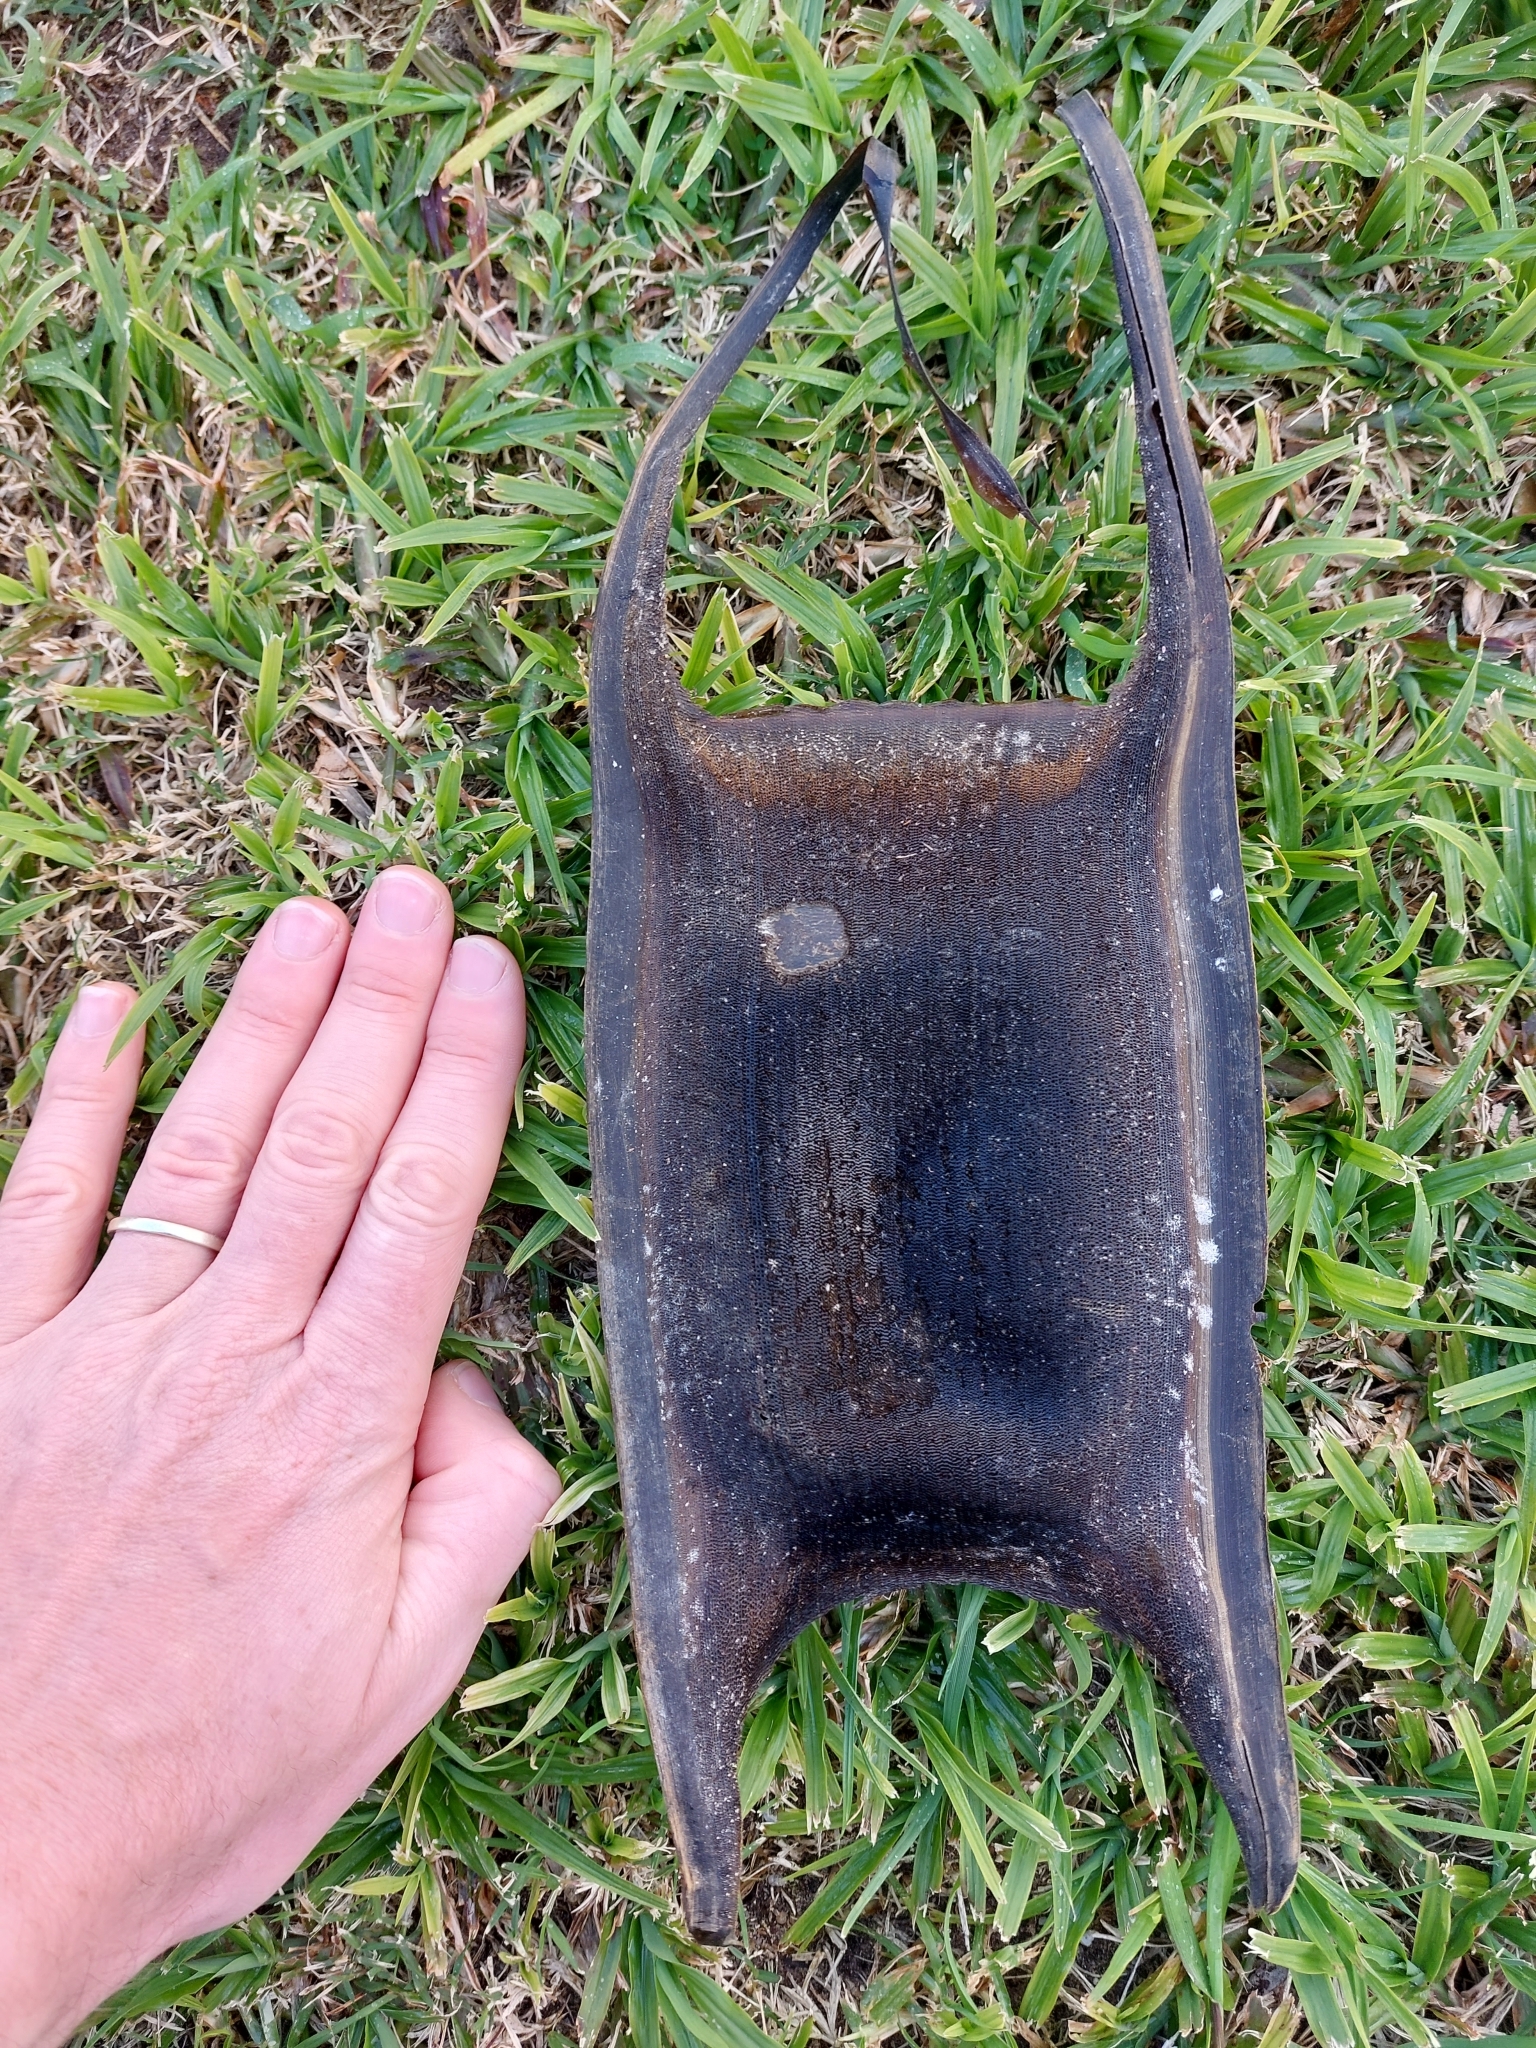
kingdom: Animalia
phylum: Chordata
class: Elasmobranchii
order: Rajiformes
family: Rajidae
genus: Rostroraja
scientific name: Rostroraja alba
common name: White skate
